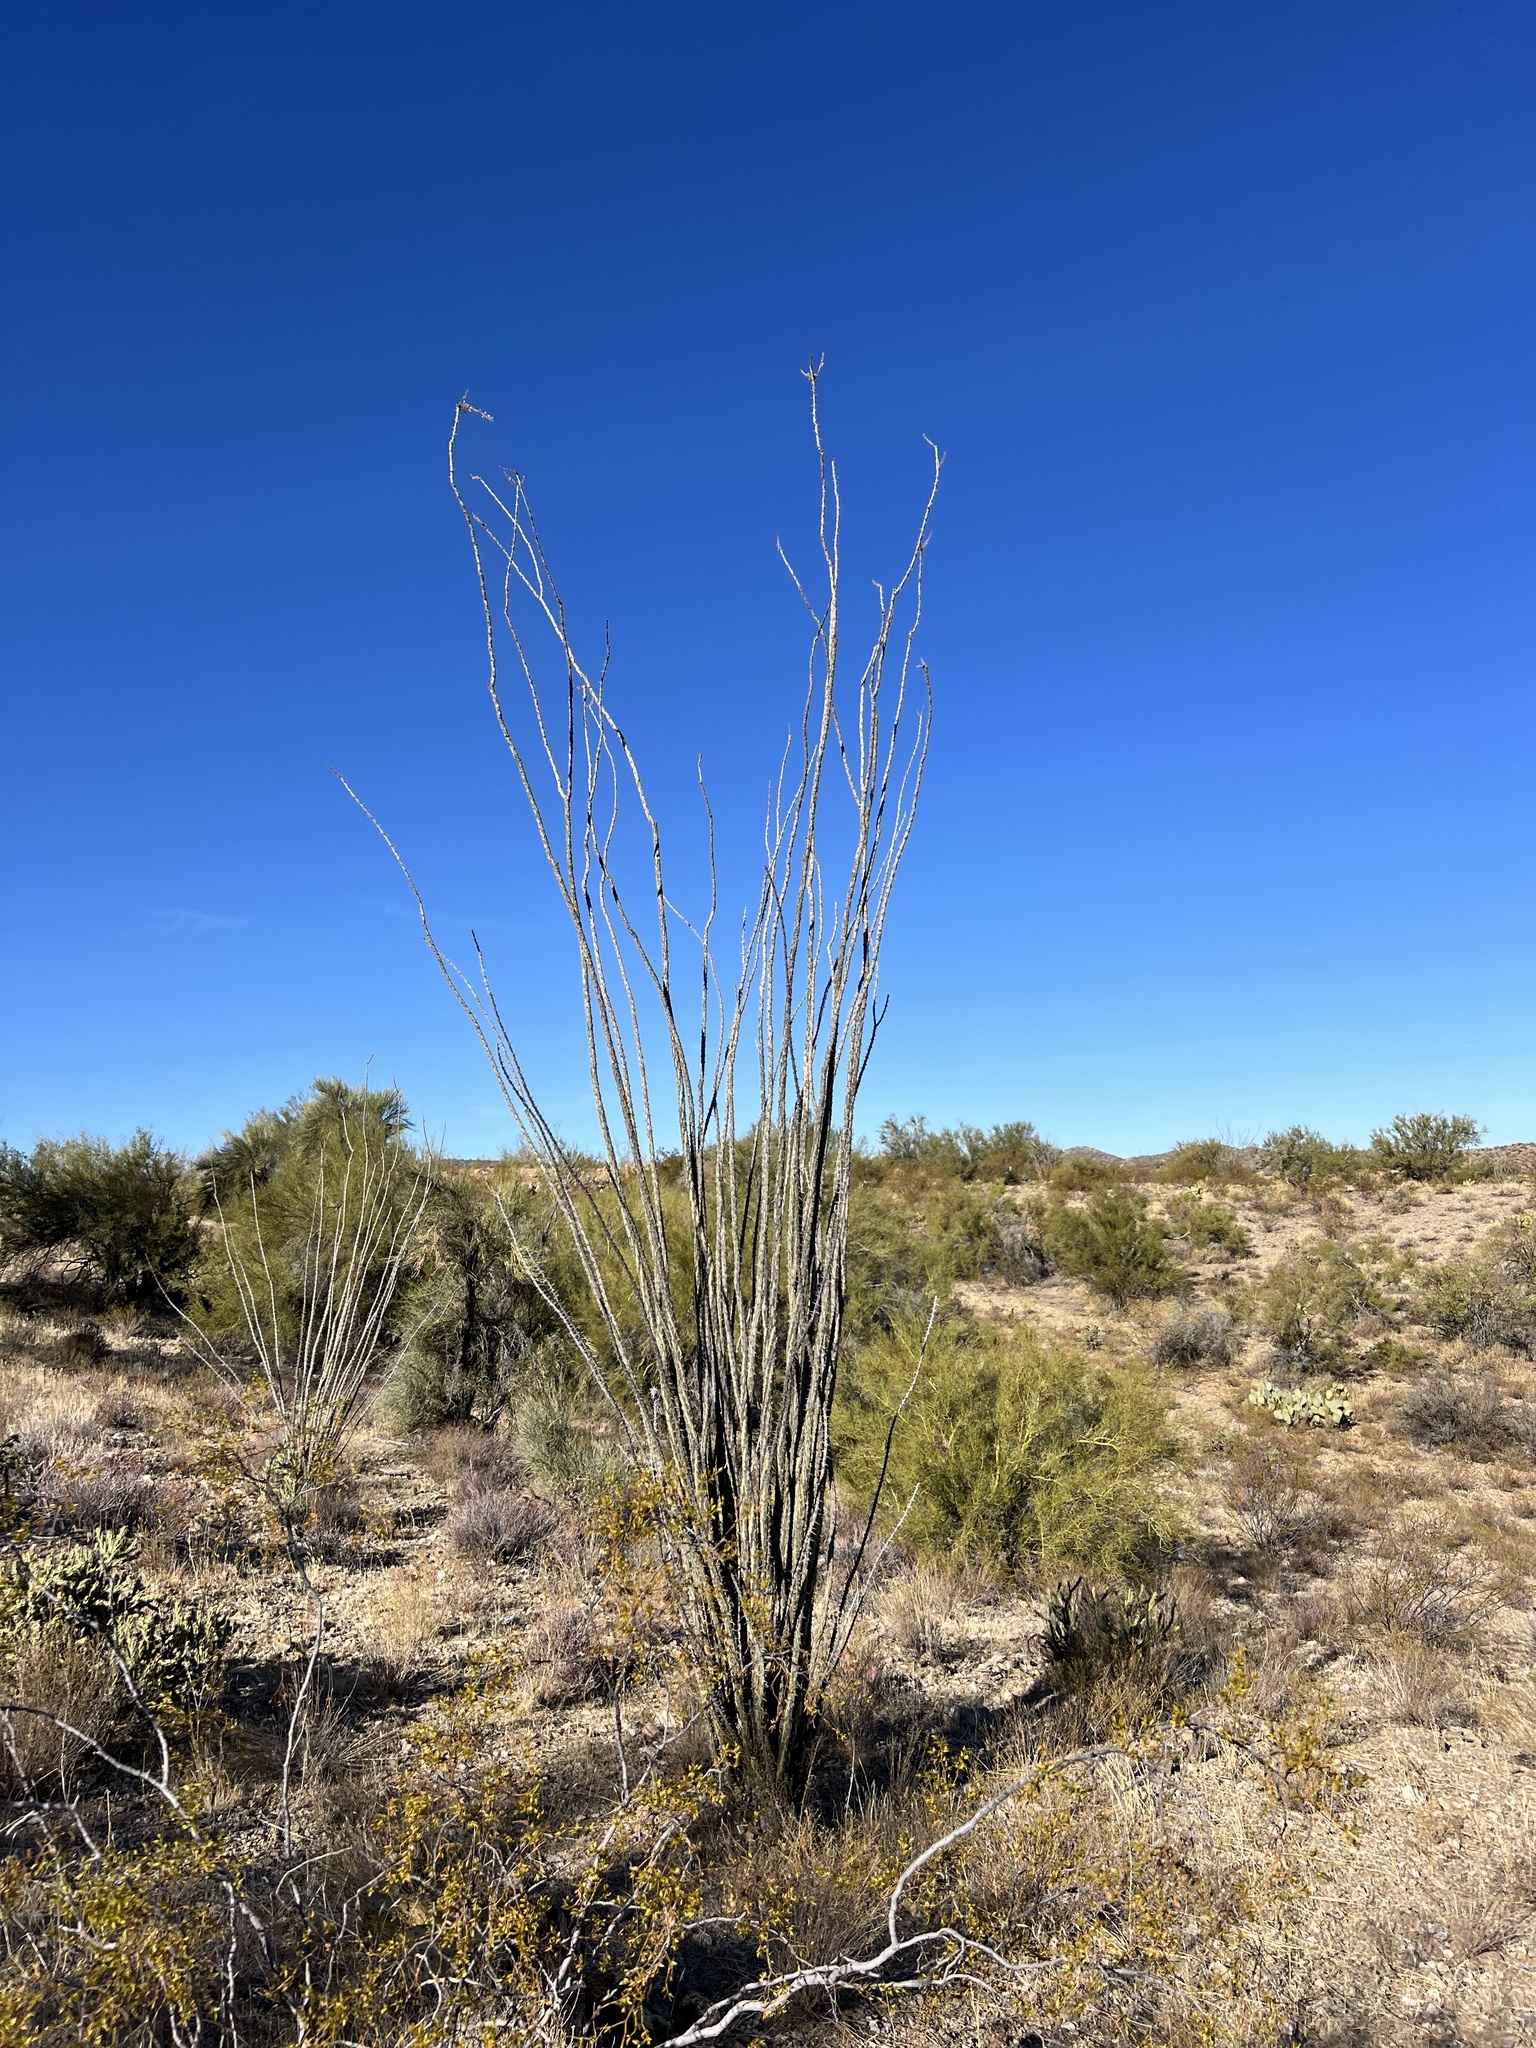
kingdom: Plantae
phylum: Tracheophyta
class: Magnoliopsida
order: Ericales
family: Fouquieriaceae
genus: Fouquieria
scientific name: Fouquieria splendens
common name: Vine-cactus
